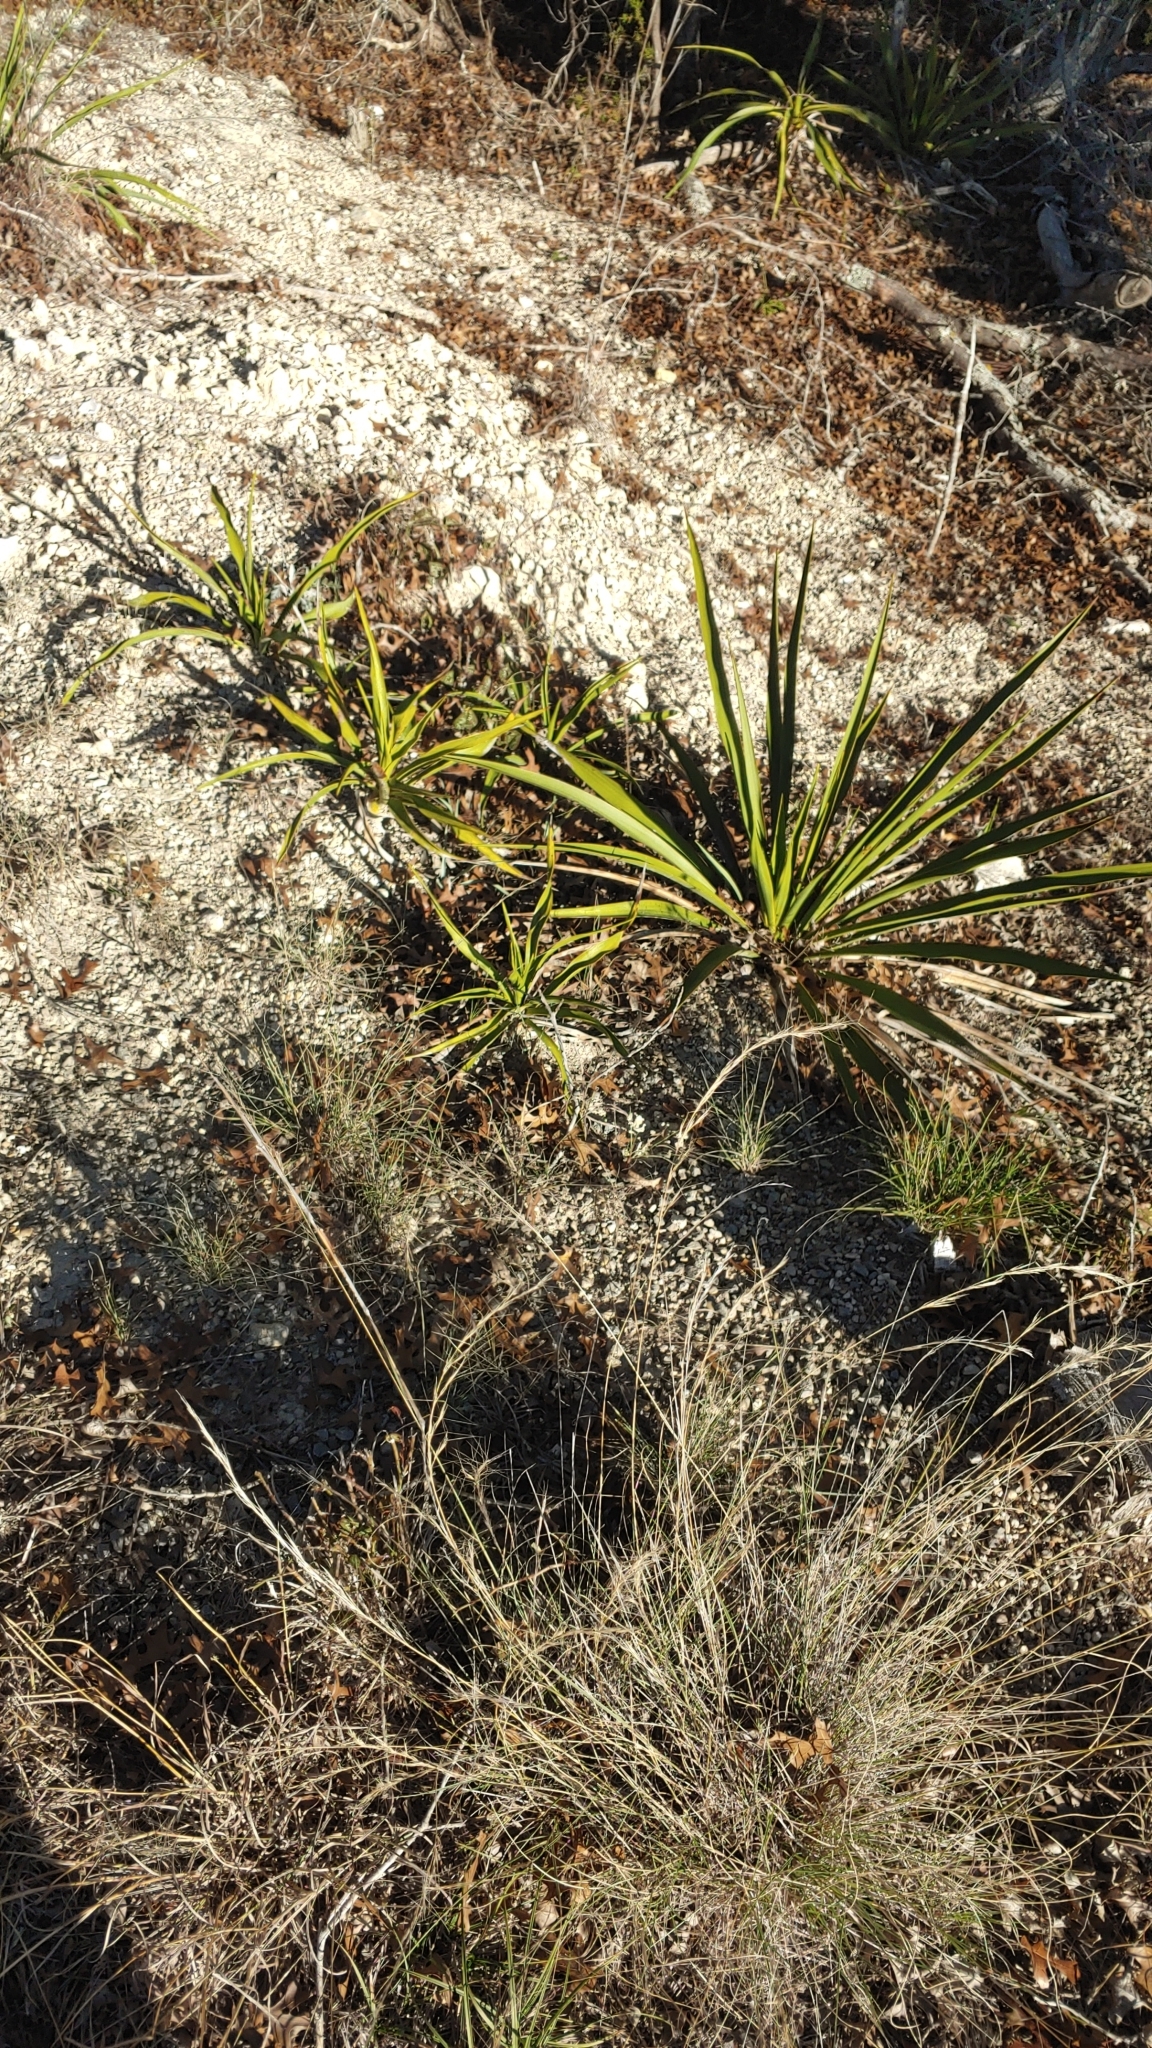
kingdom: Plantae
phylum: Tracheophyta
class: Liliopsida
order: Asparagales
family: Asparagaceae
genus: Yucca
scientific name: Yucca rupicola
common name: Twisted-leaf spanish-dagger
